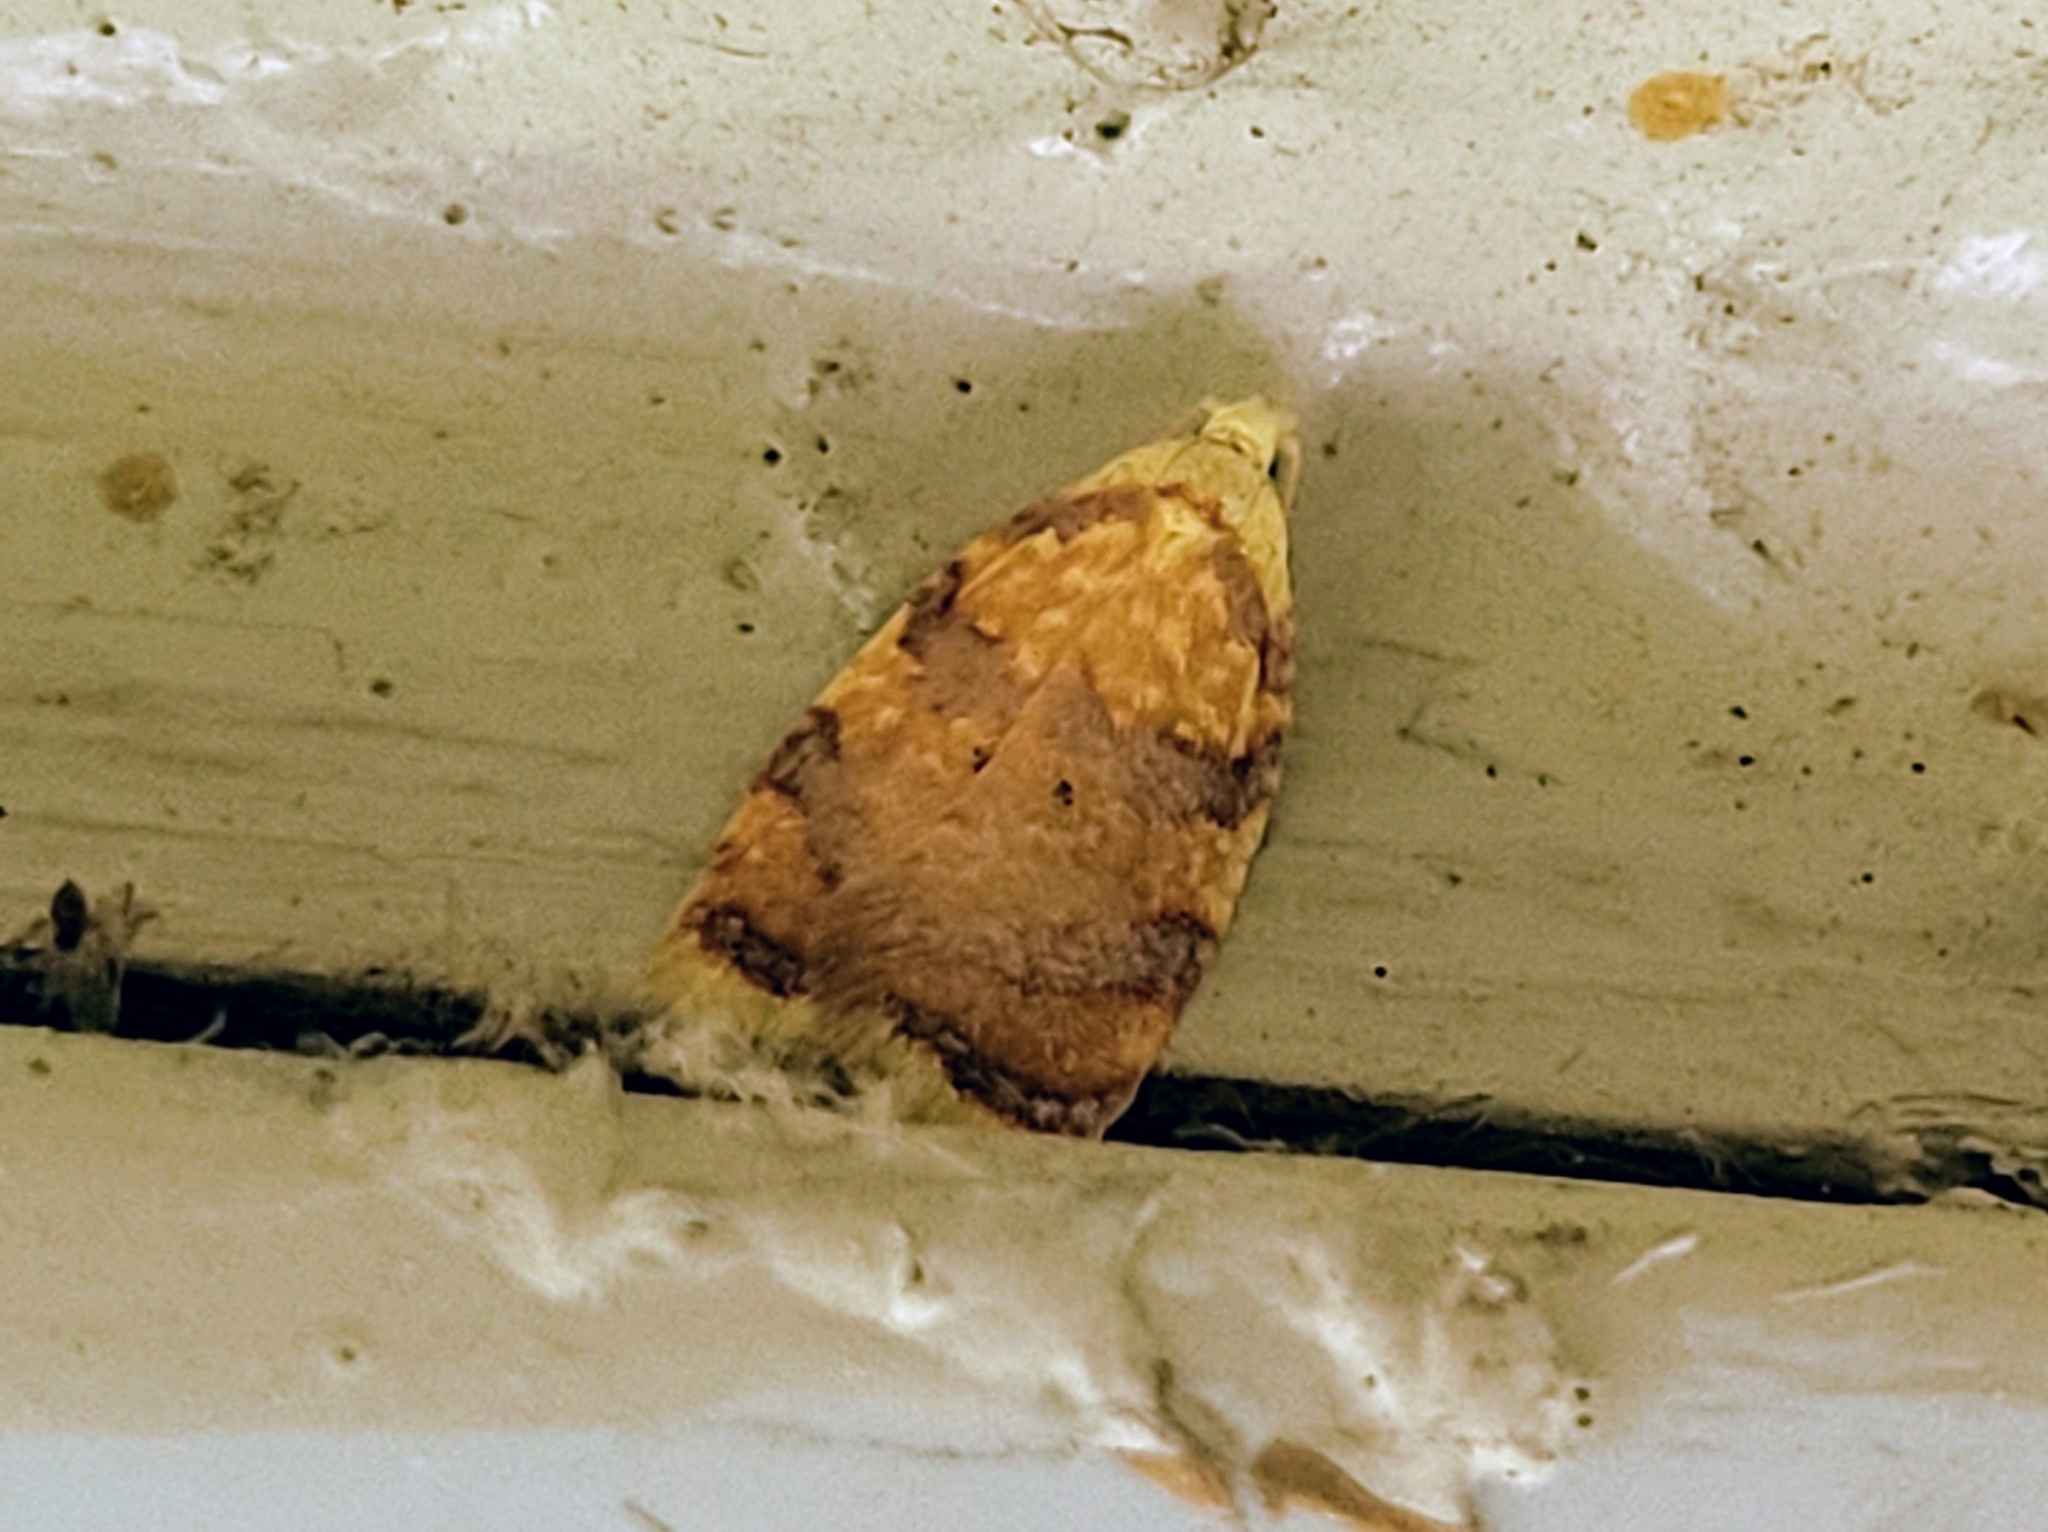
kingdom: Animalia
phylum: Arthropoda
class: Insecta
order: Lepidoptera
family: Tortricidae
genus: Acleris
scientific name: Acleris albicomana
